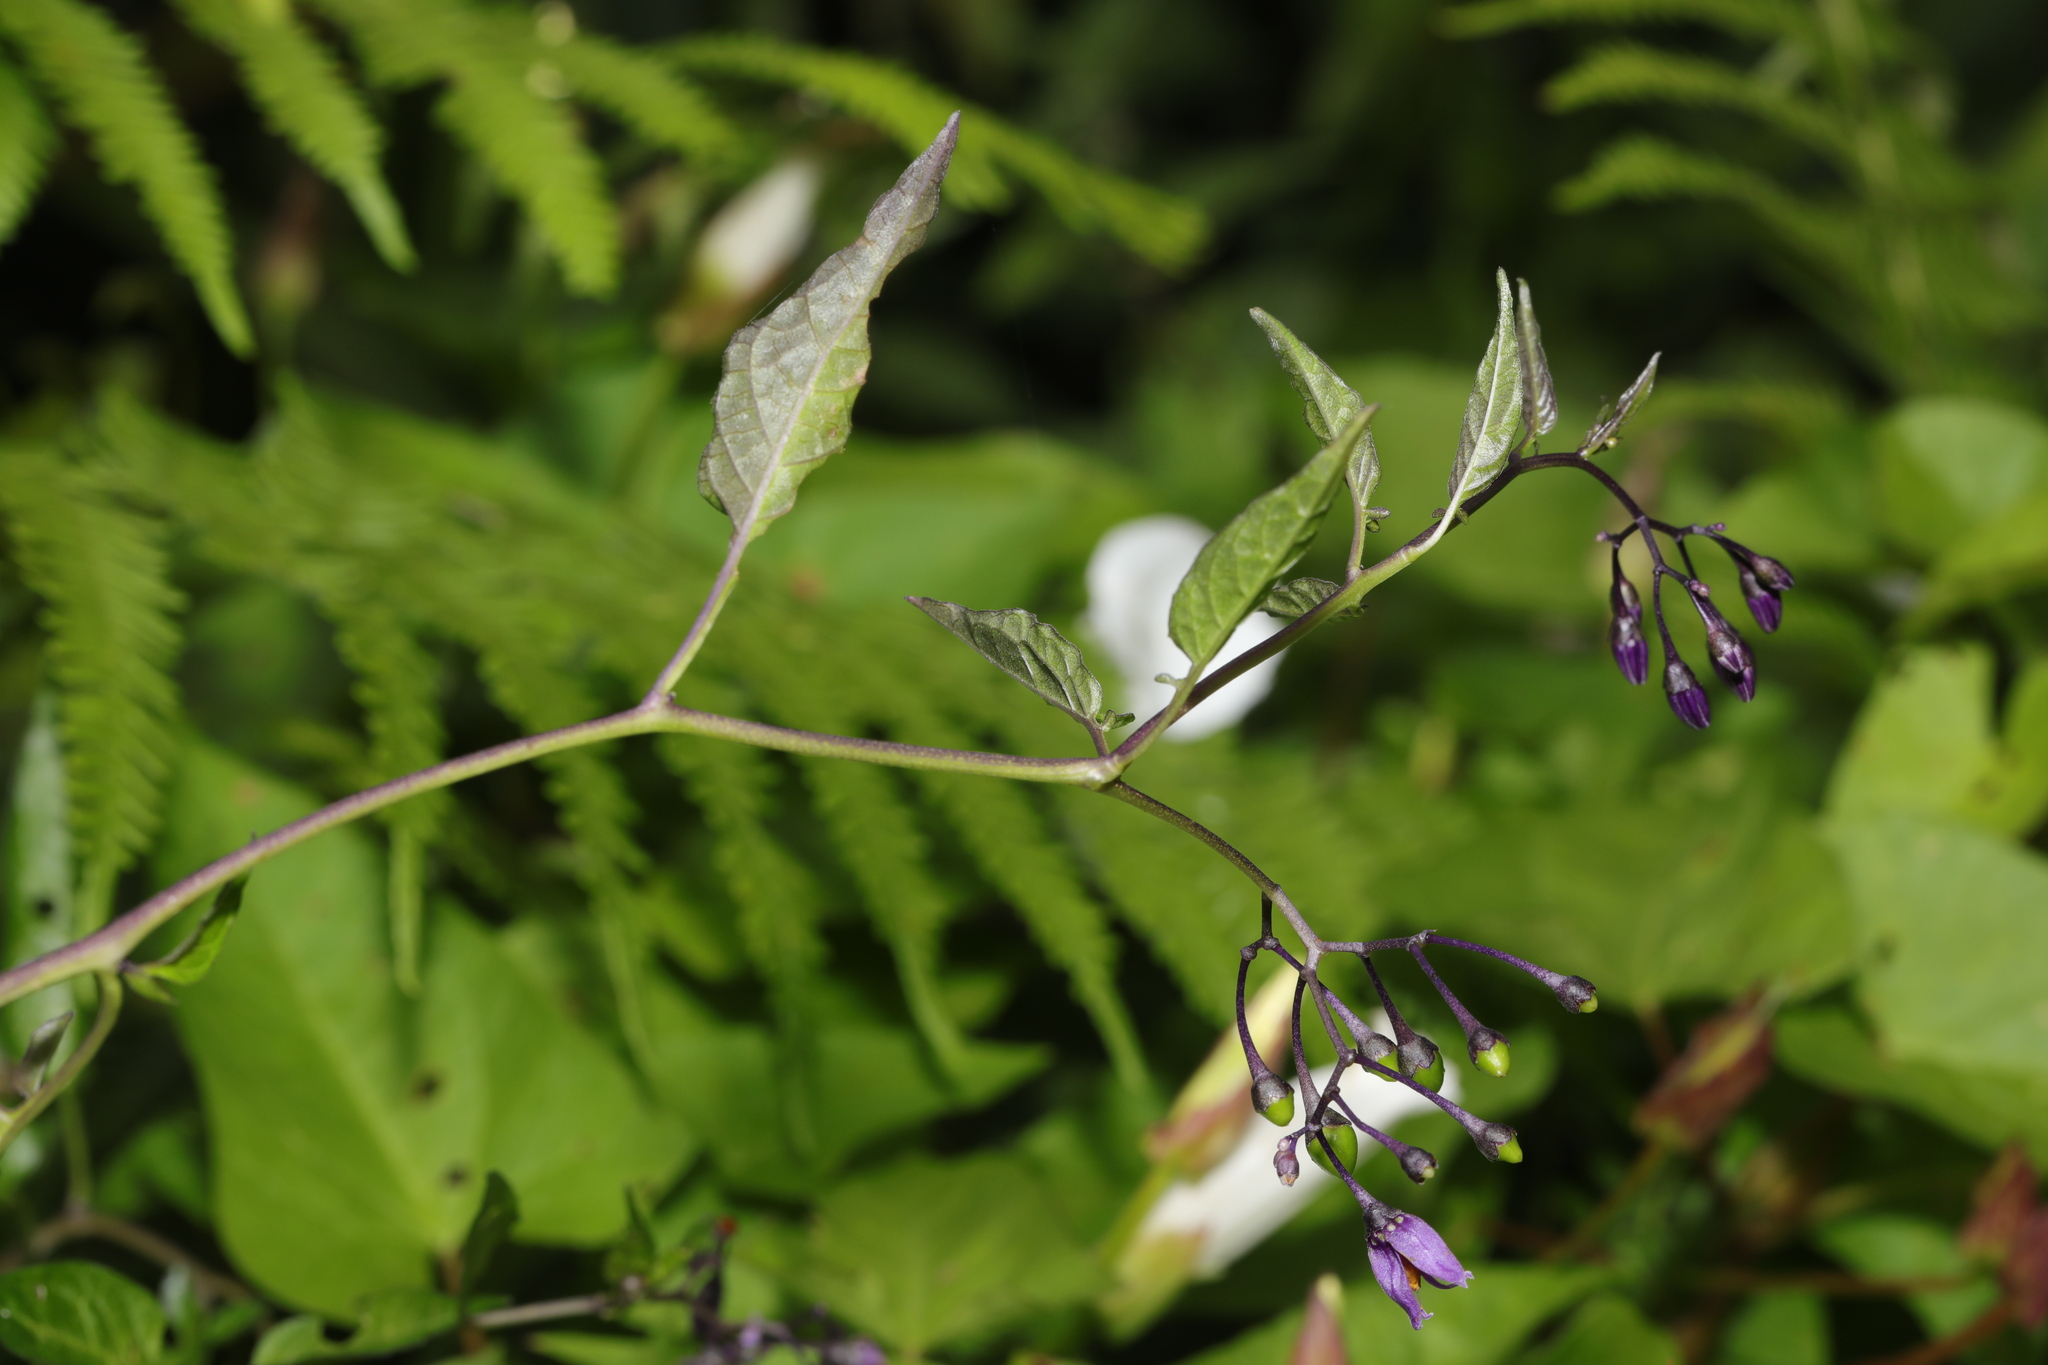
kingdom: Plantae
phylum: Tracheophyta
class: Magnoliopsida
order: Solanales
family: Solanaceae
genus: Solanum
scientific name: Solanum dulcamara
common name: Climbing nightshade
